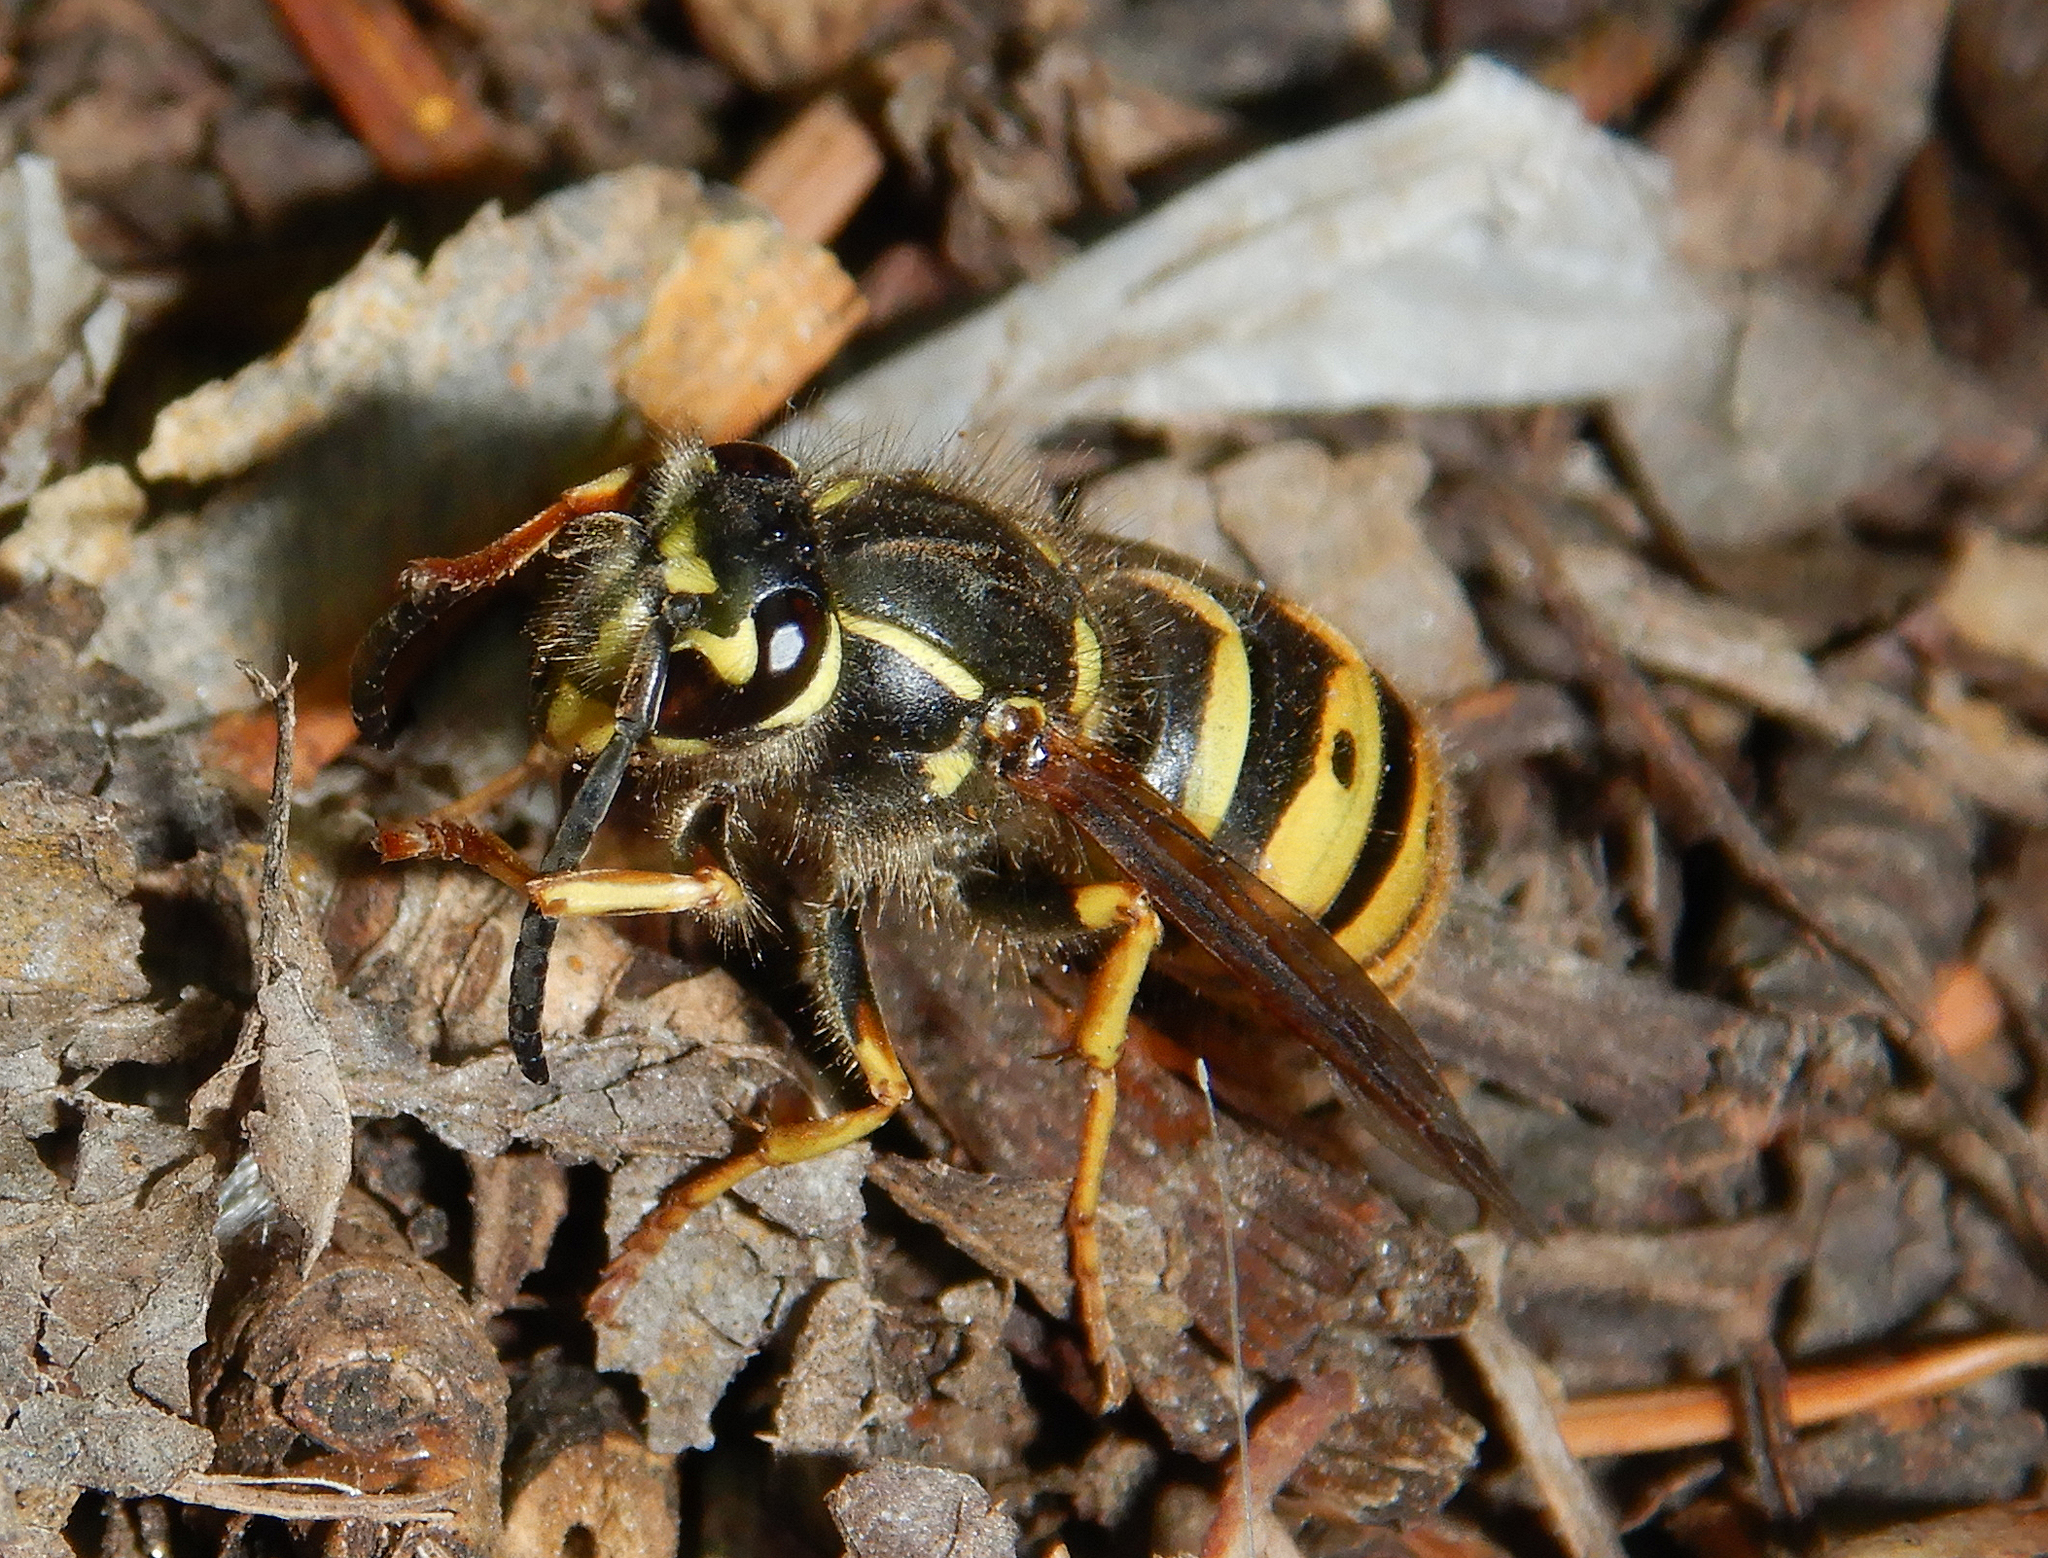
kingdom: Animalia
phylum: Arthropoda
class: Insecta
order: Hymenoptera
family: Vespidae
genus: Vespula
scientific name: Vespula alascensis
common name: Alaska yellowjacket
